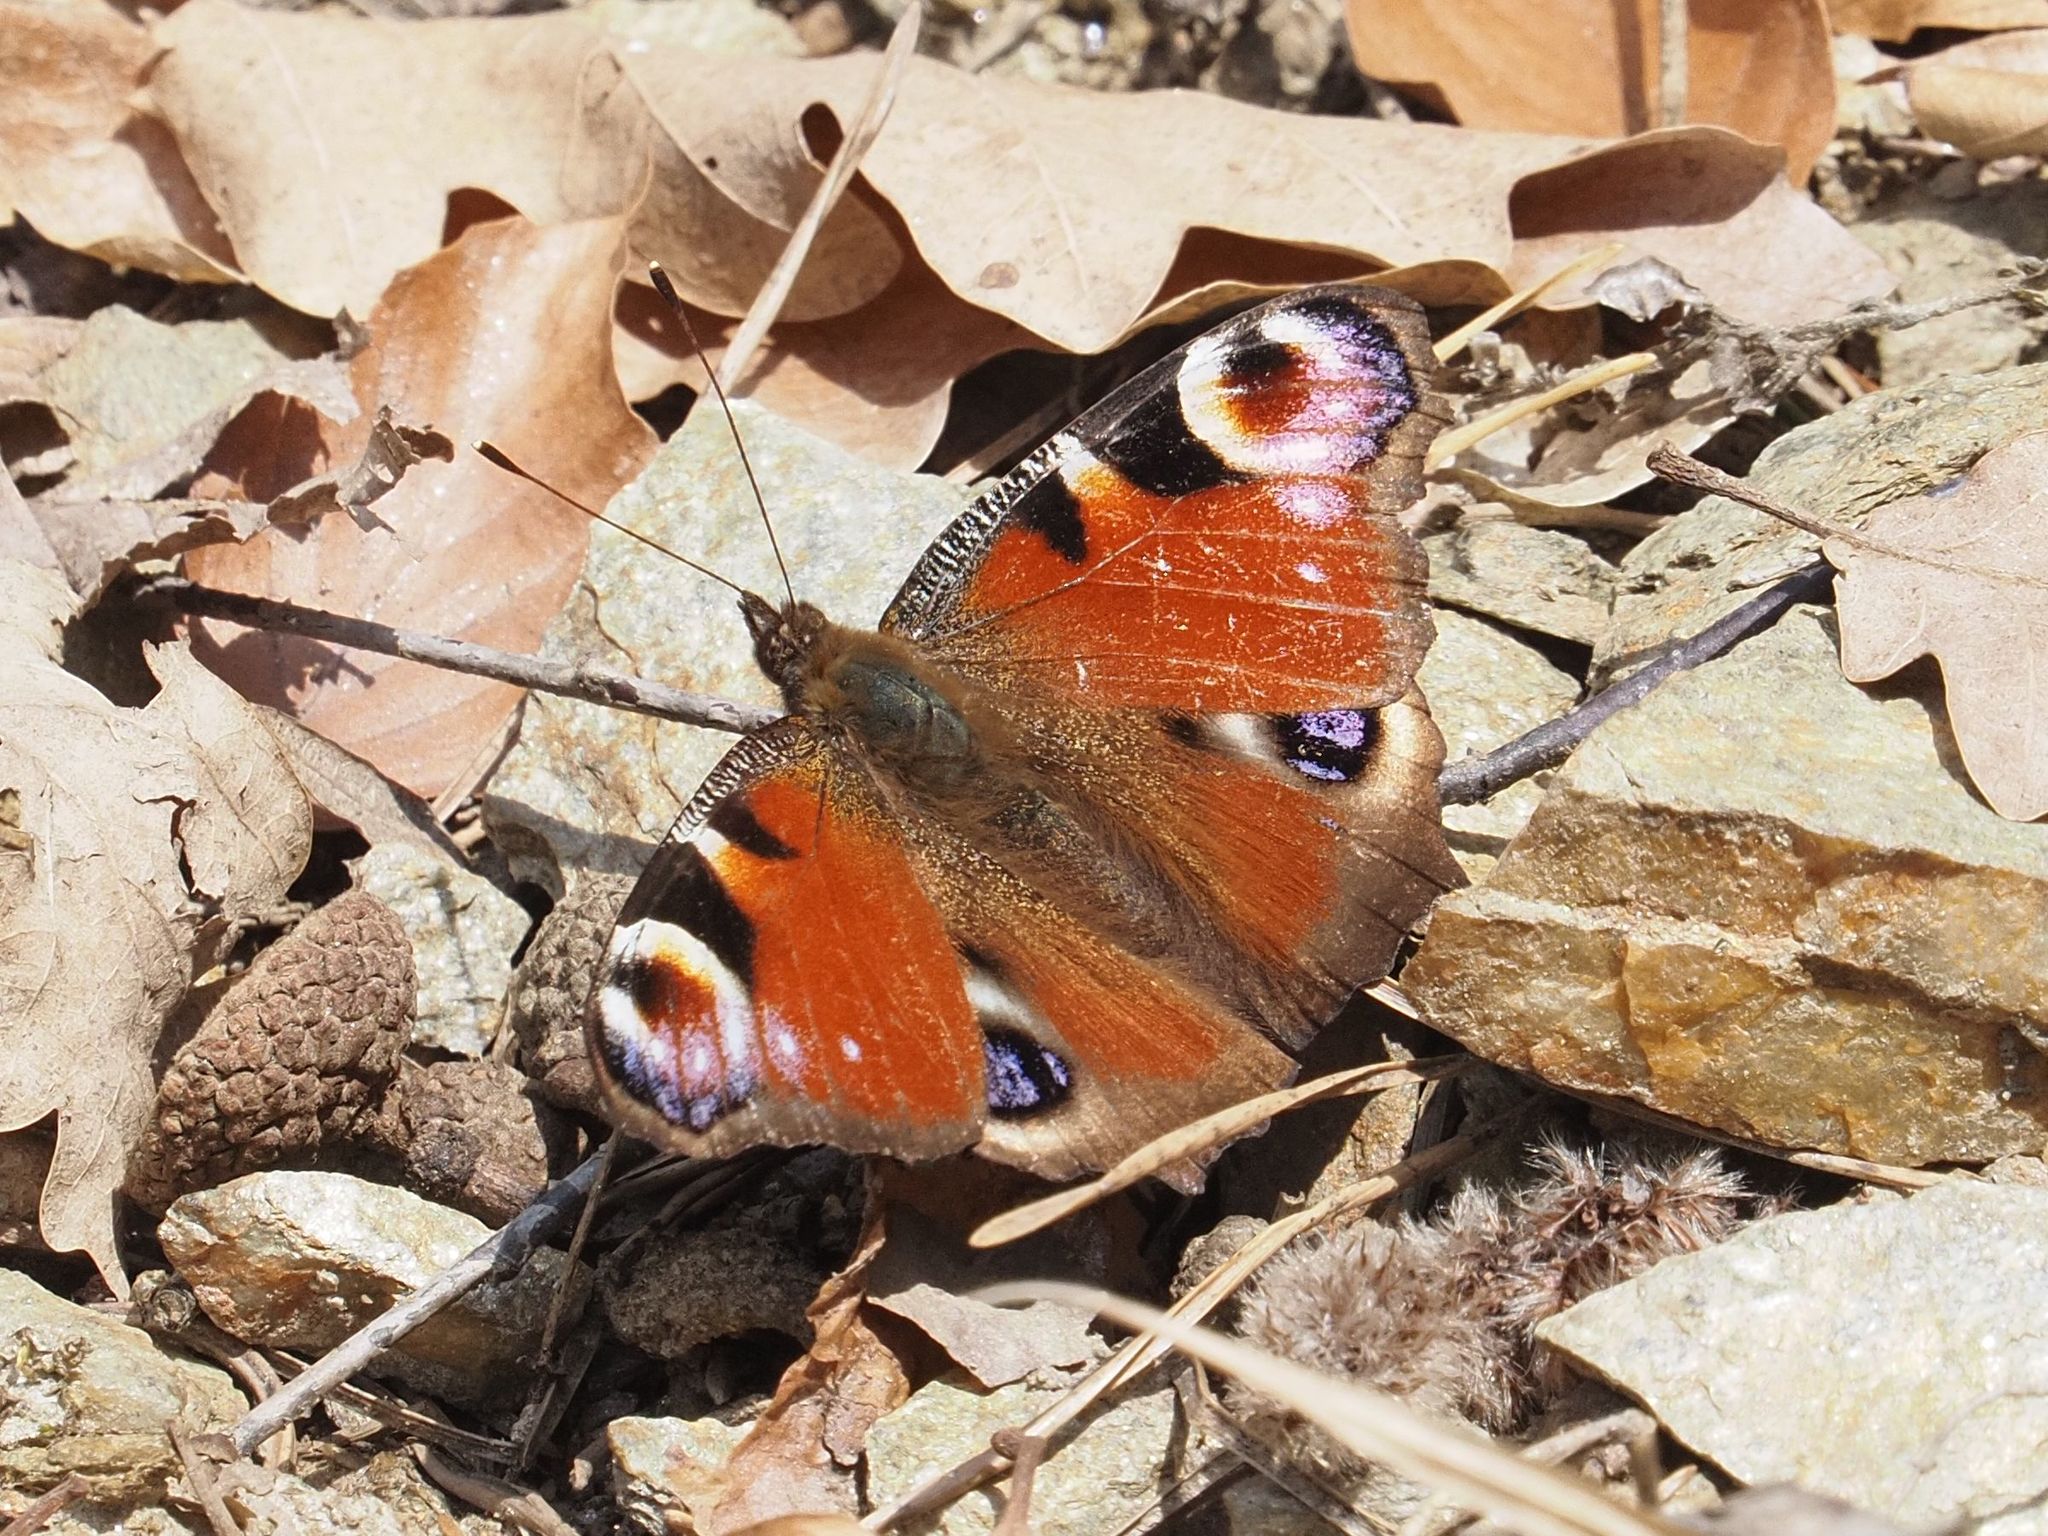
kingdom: Animalia
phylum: Arthropoda
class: Insecta
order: Lepidoptera
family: Nymphalidae
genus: Aglais
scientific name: Aglais io
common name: Peacock
